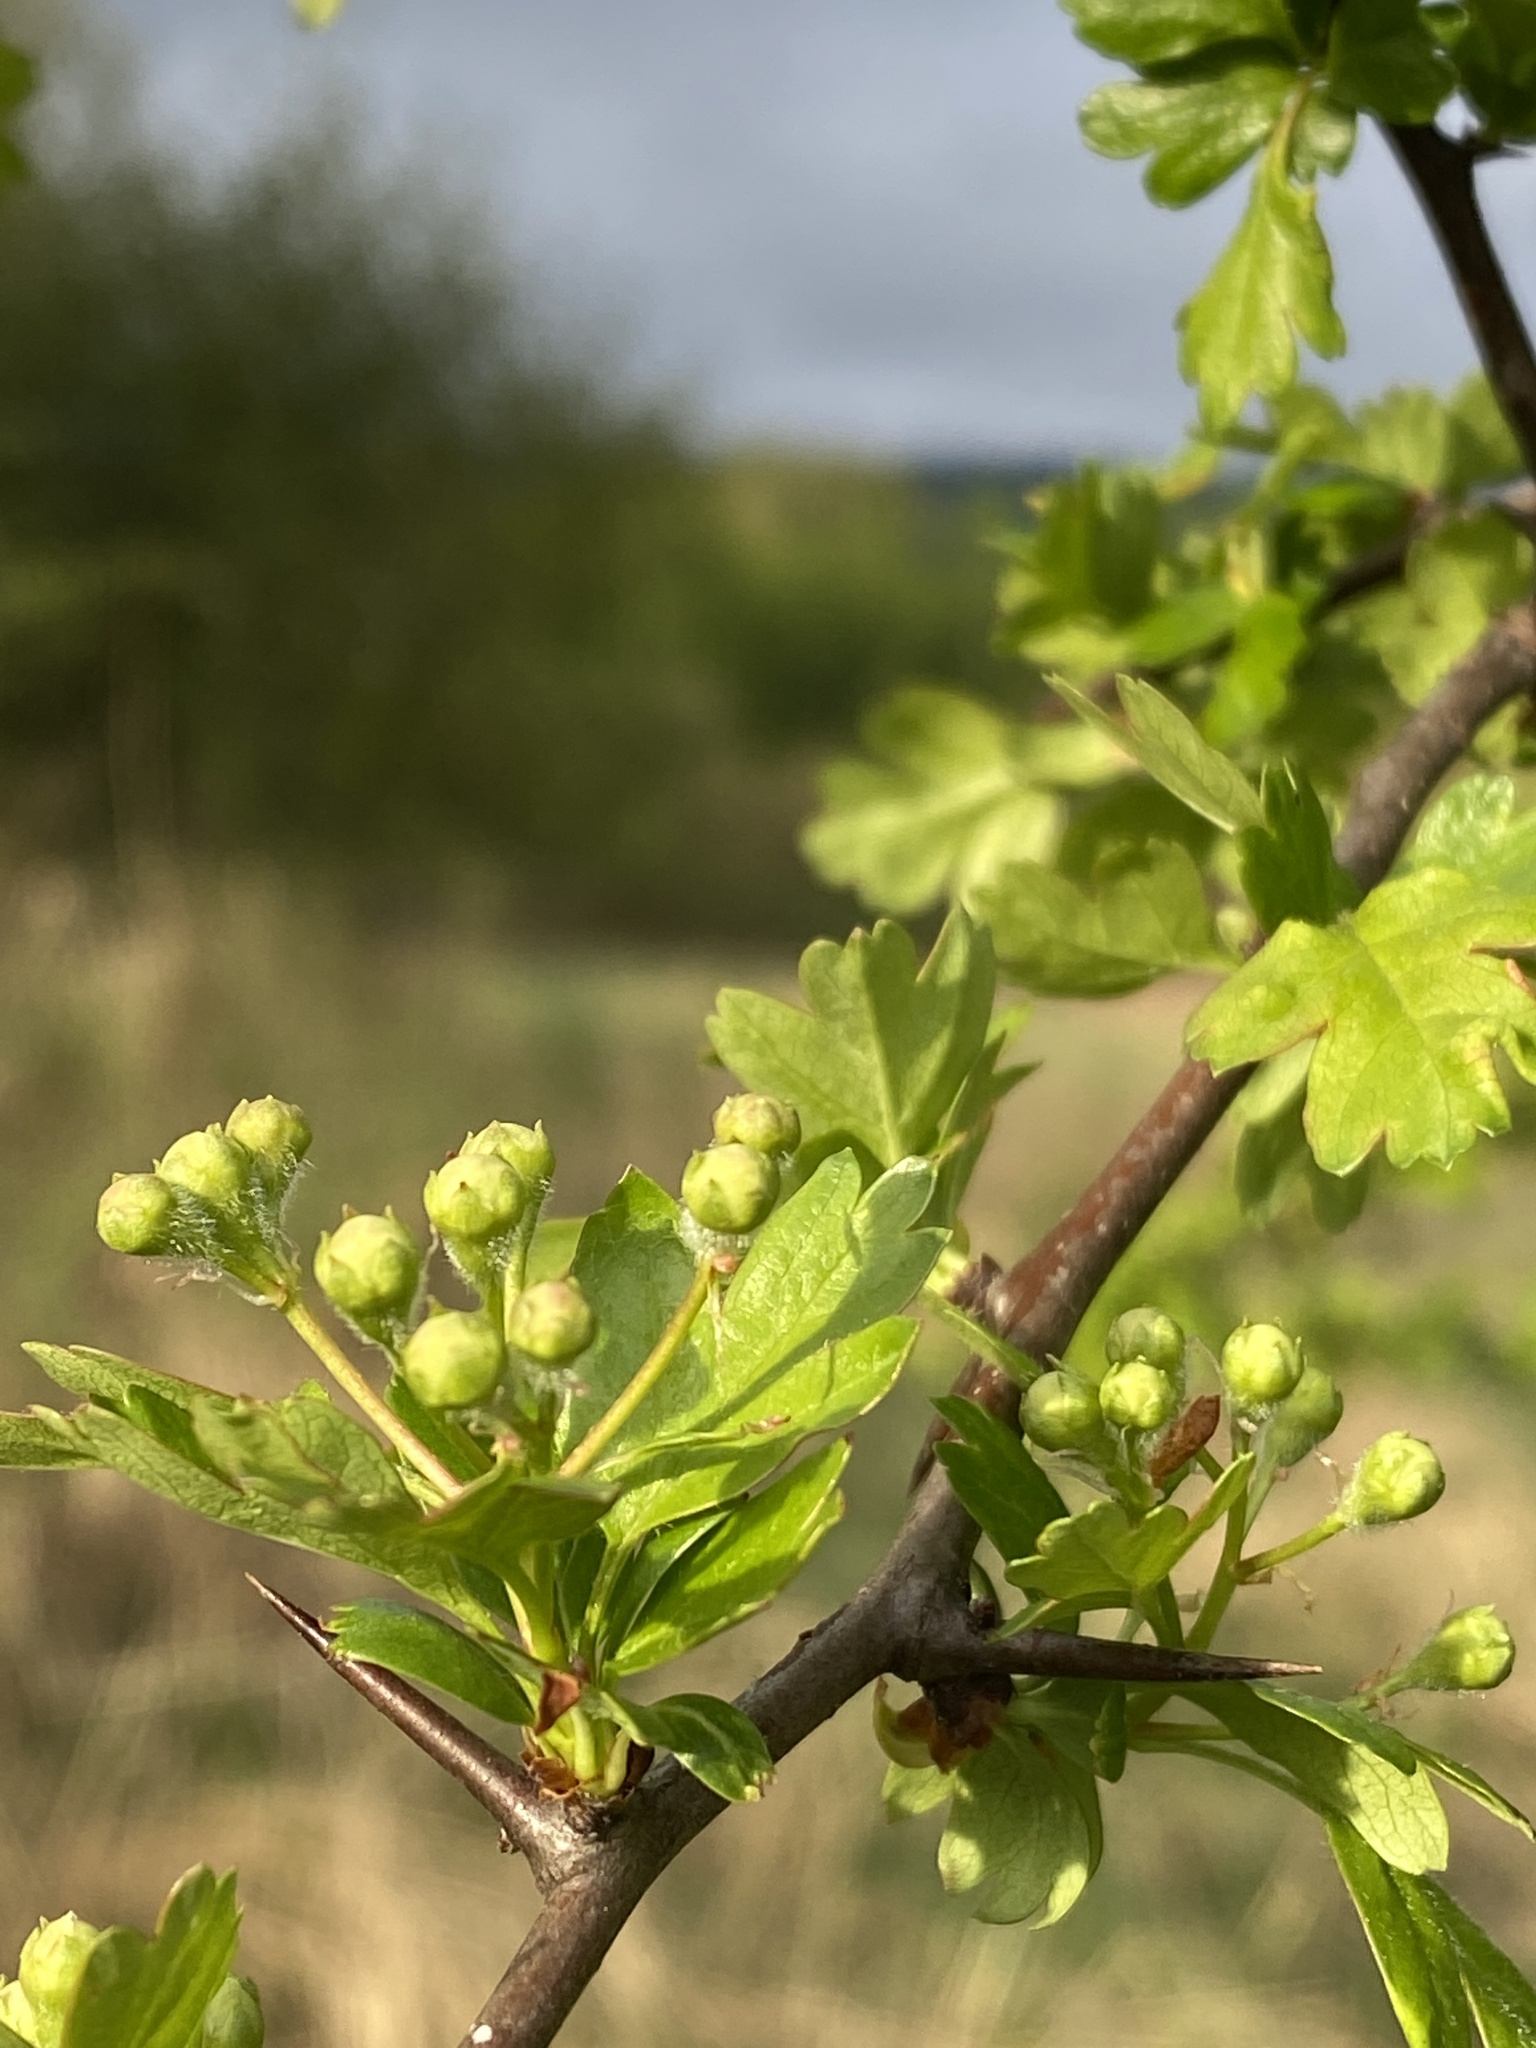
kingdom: Plantae
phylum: Tracheophyta
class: Magnoliopsida
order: Rosales
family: Rosaceae
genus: Crataegus
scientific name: Crataegus monogyna
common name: Hawthorn
